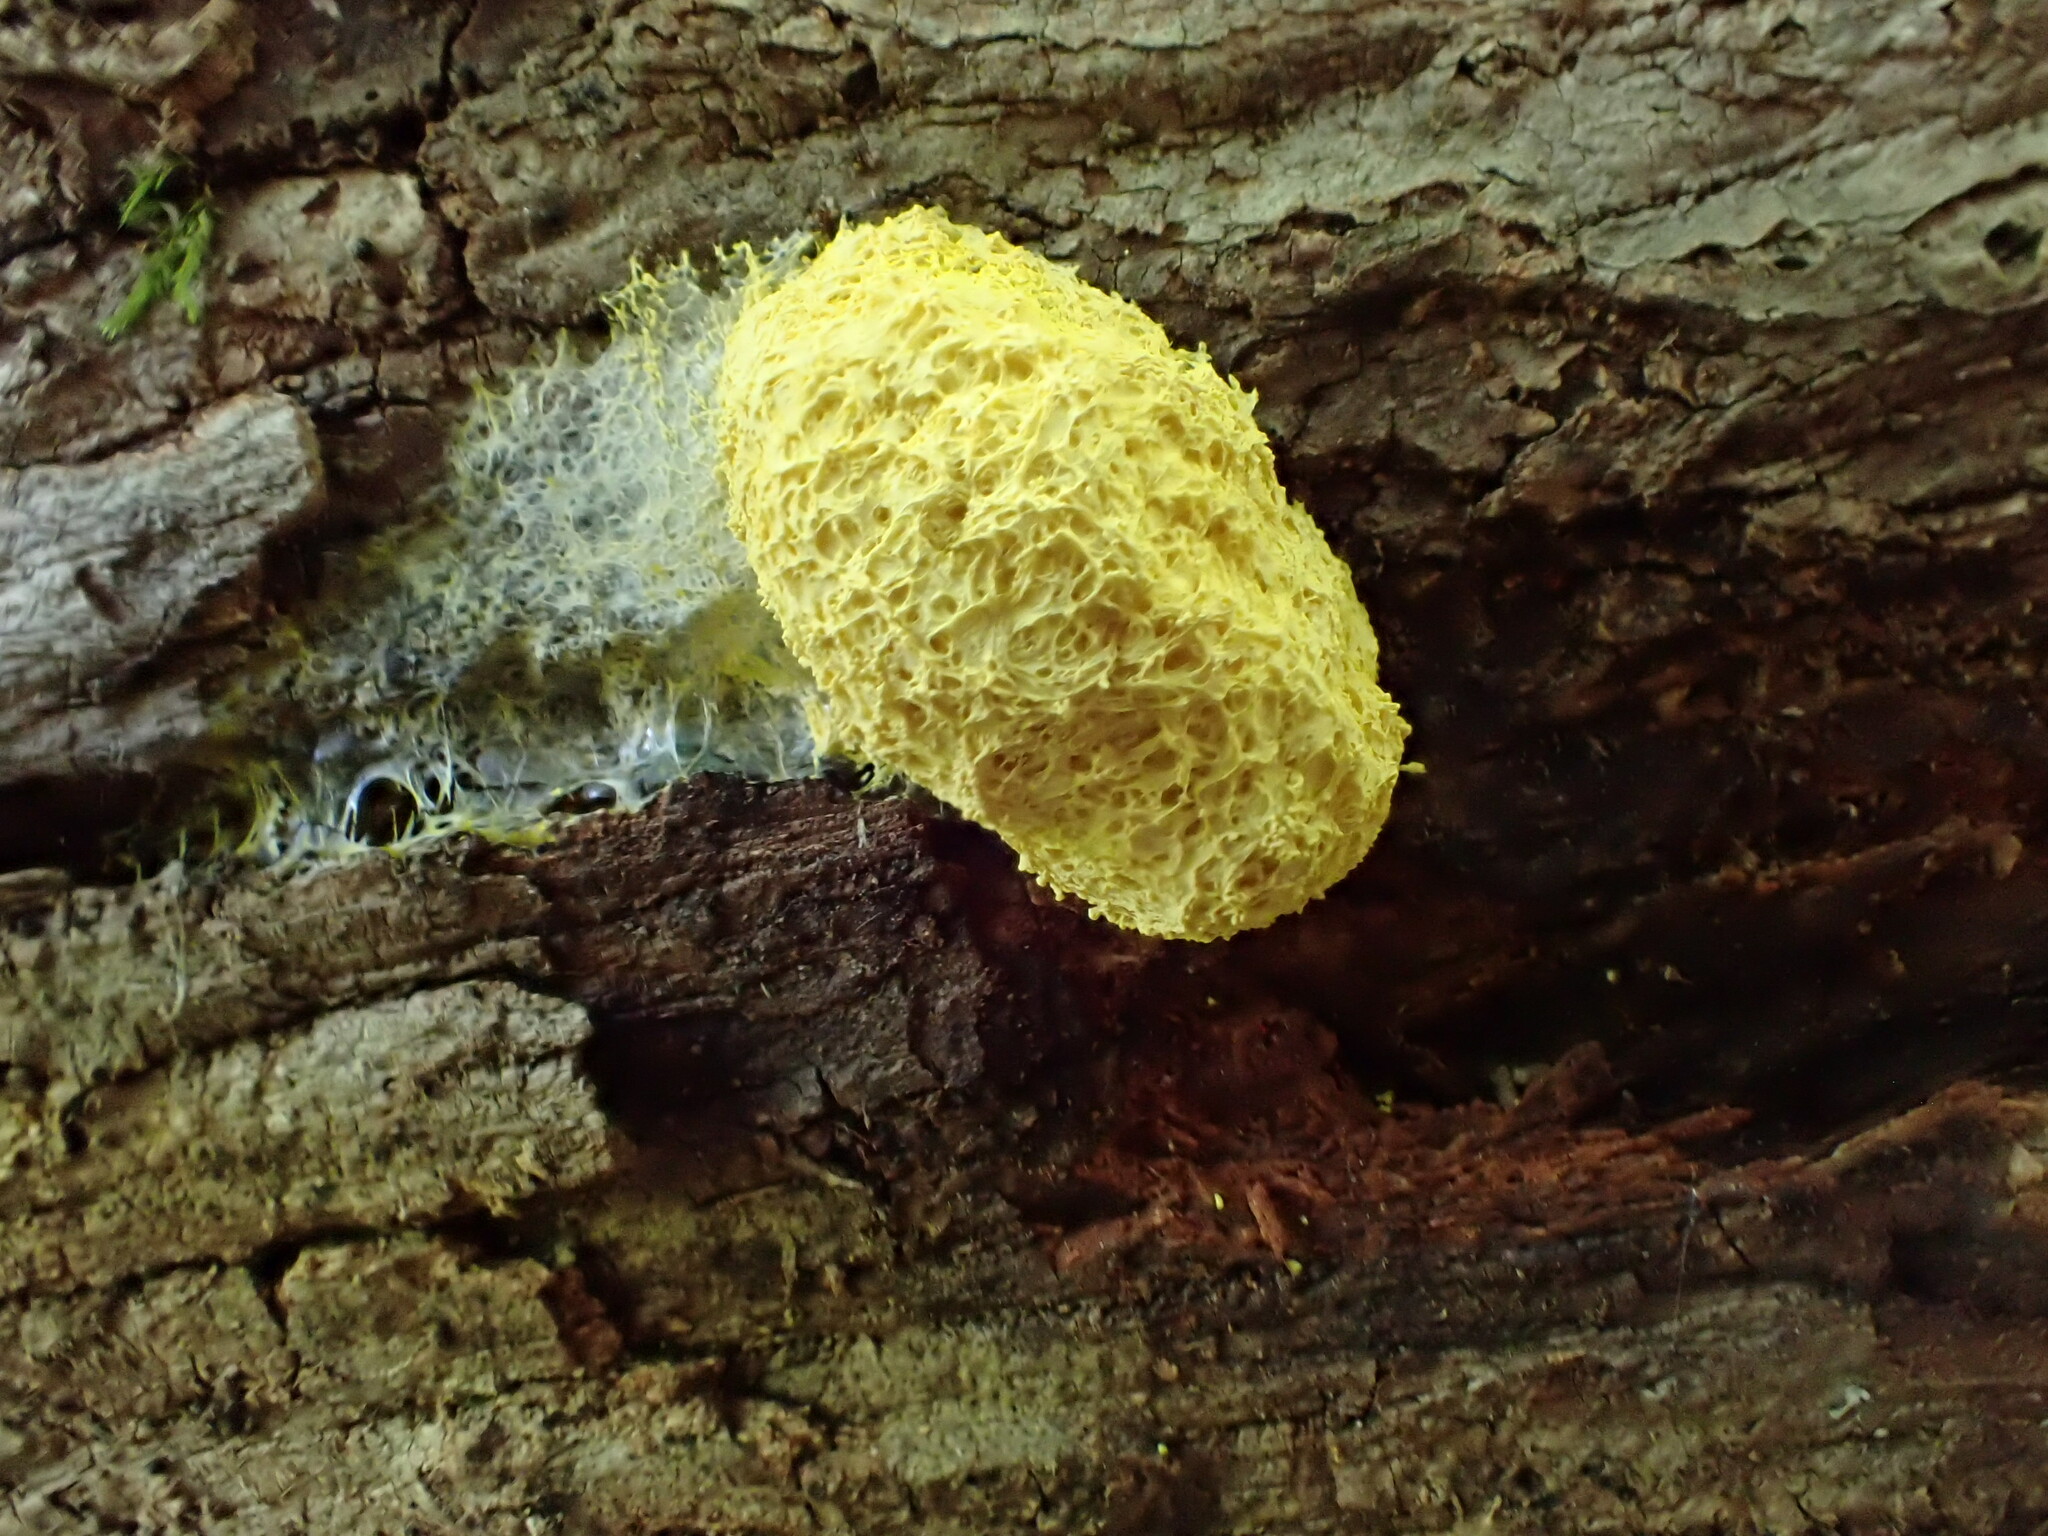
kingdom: Protozoa
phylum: Mycetozoa
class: Myxomycetes
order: Physarales
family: Physaraceae
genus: Fuligo
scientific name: Fuligo septica
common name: Dog vomit slime mold
